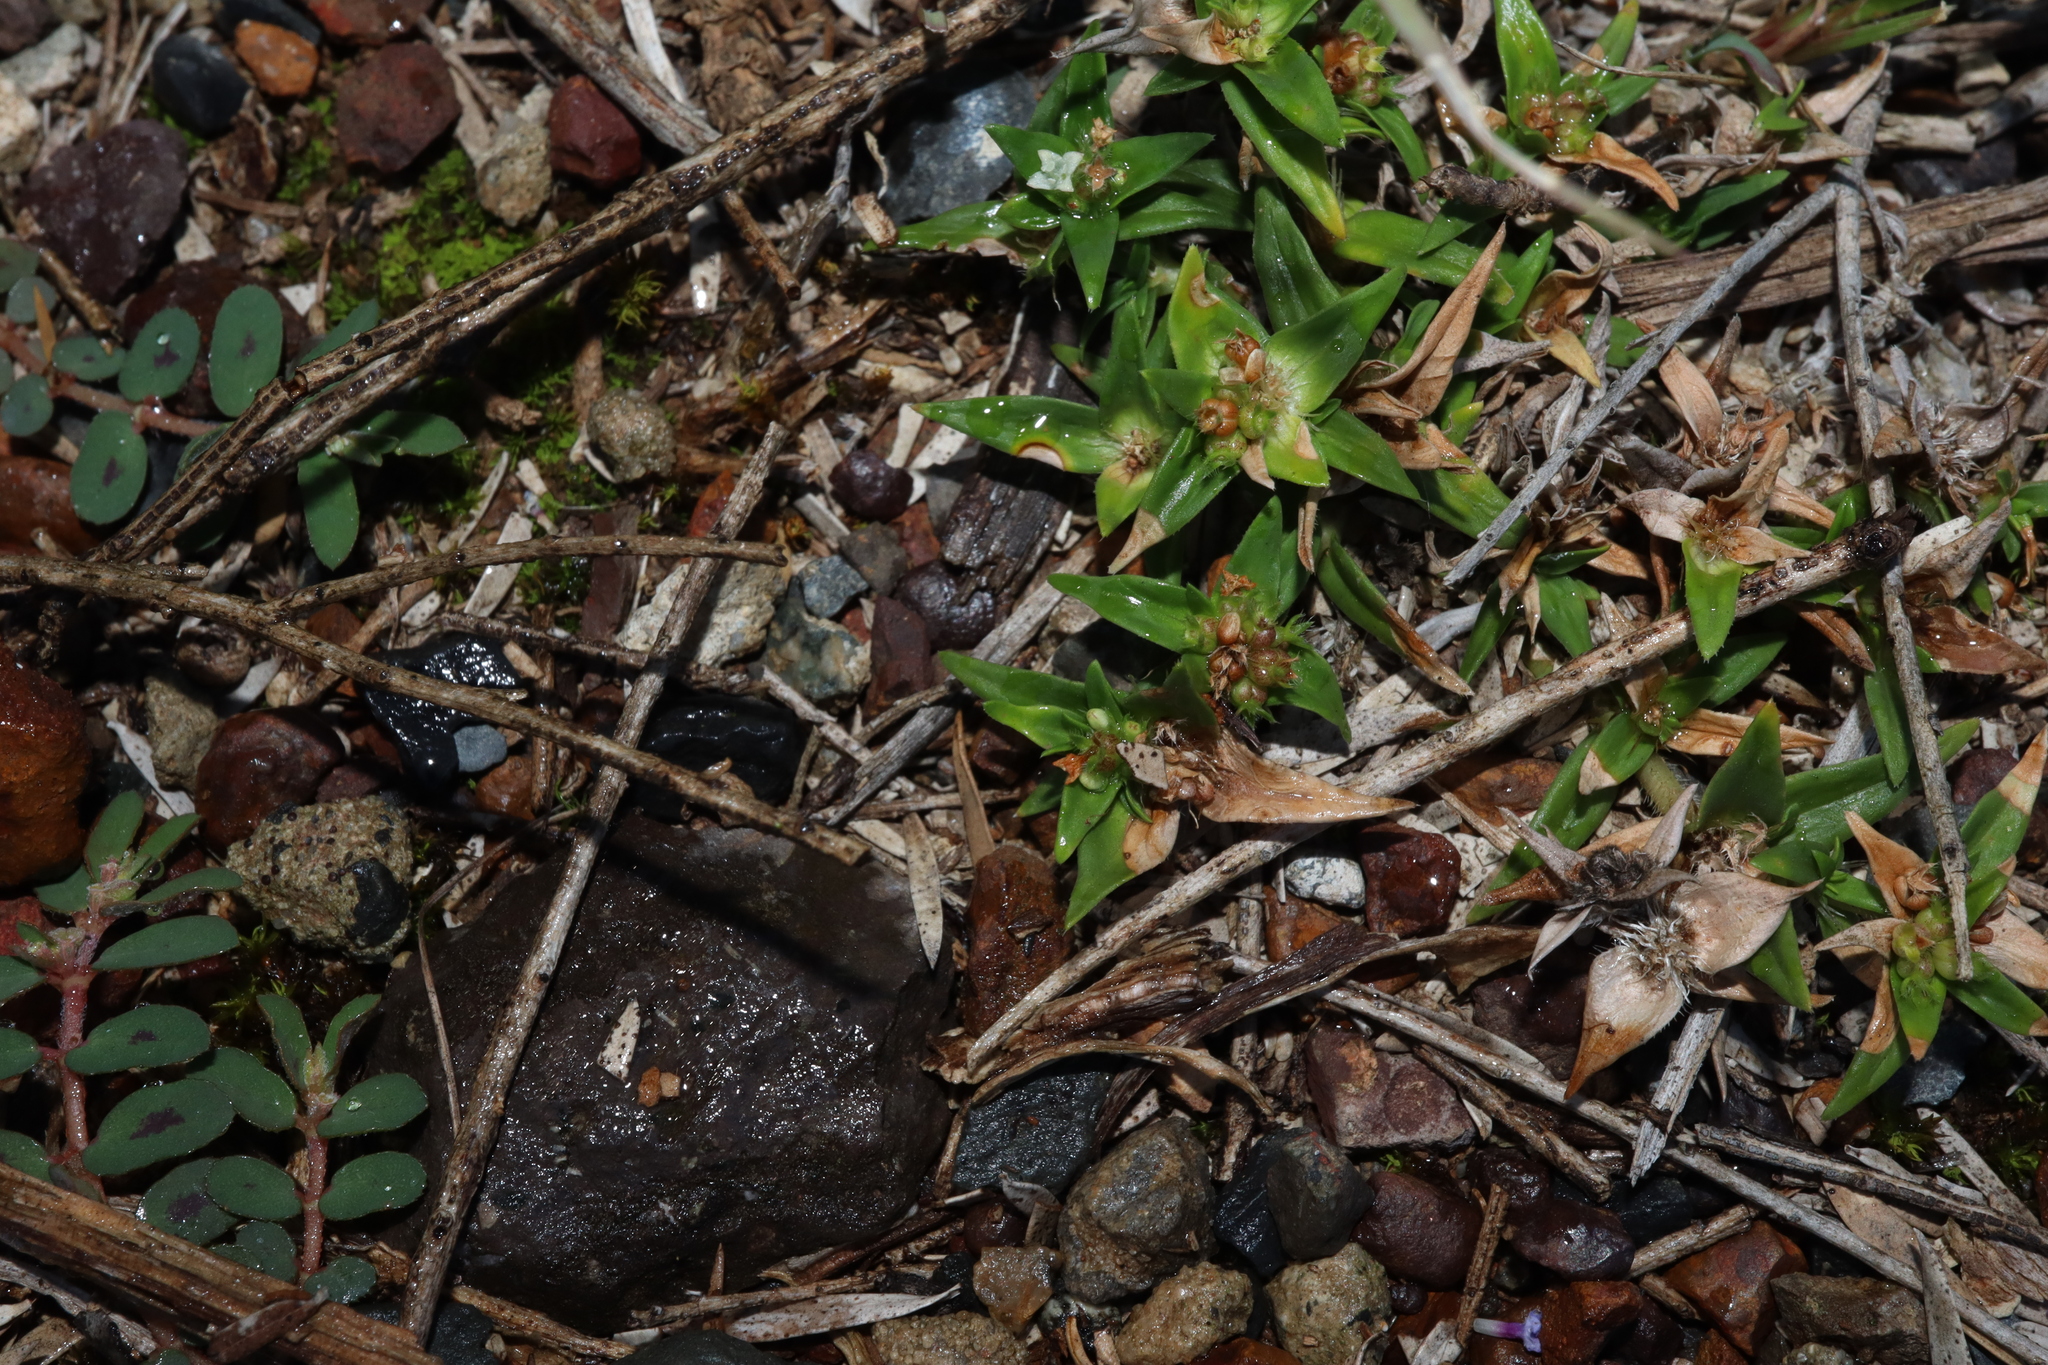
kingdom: Plantae
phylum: Tracheophyta
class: Magnoliopsida
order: Gentianales
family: Rubiaceae
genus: Richardia
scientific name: Richardia stellaris
